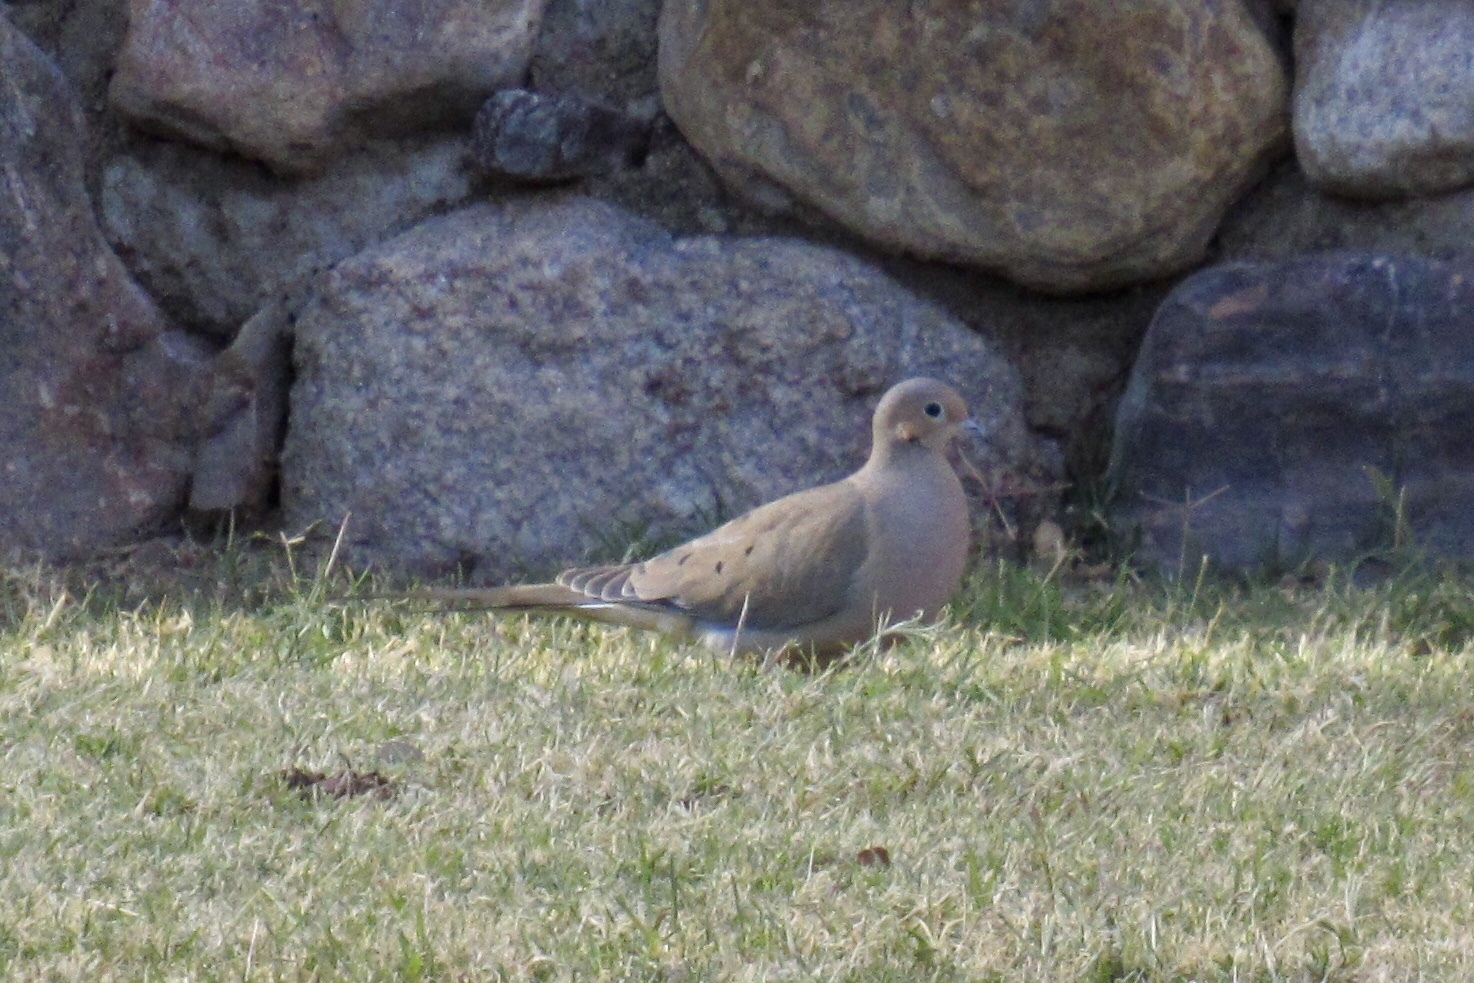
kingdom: Animalia
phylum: Chordata
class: Aves
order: Columbiformes
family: Columbidae
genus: Zenaida
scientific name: Zenaida macroura
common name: Mourning dove
